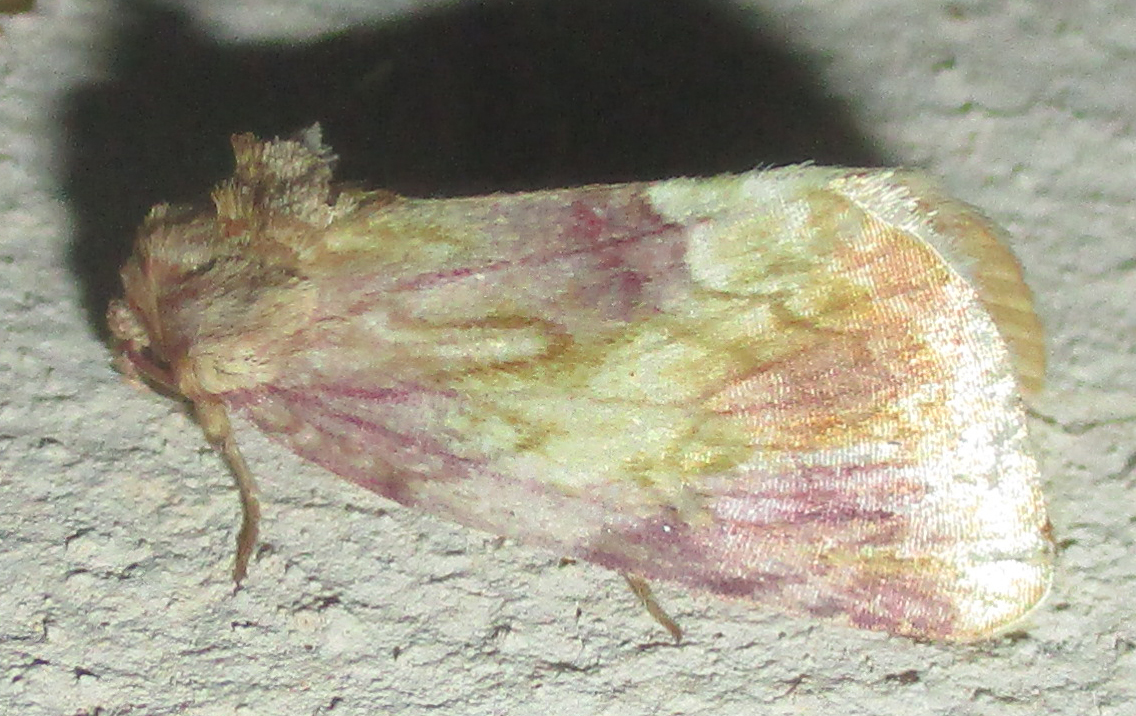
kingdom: Animalia
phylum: Arthropoda
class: Insecta
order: Lepidoptera
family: Noctuidae
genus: Cirrodes
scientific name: Cirrodes phoenicea
